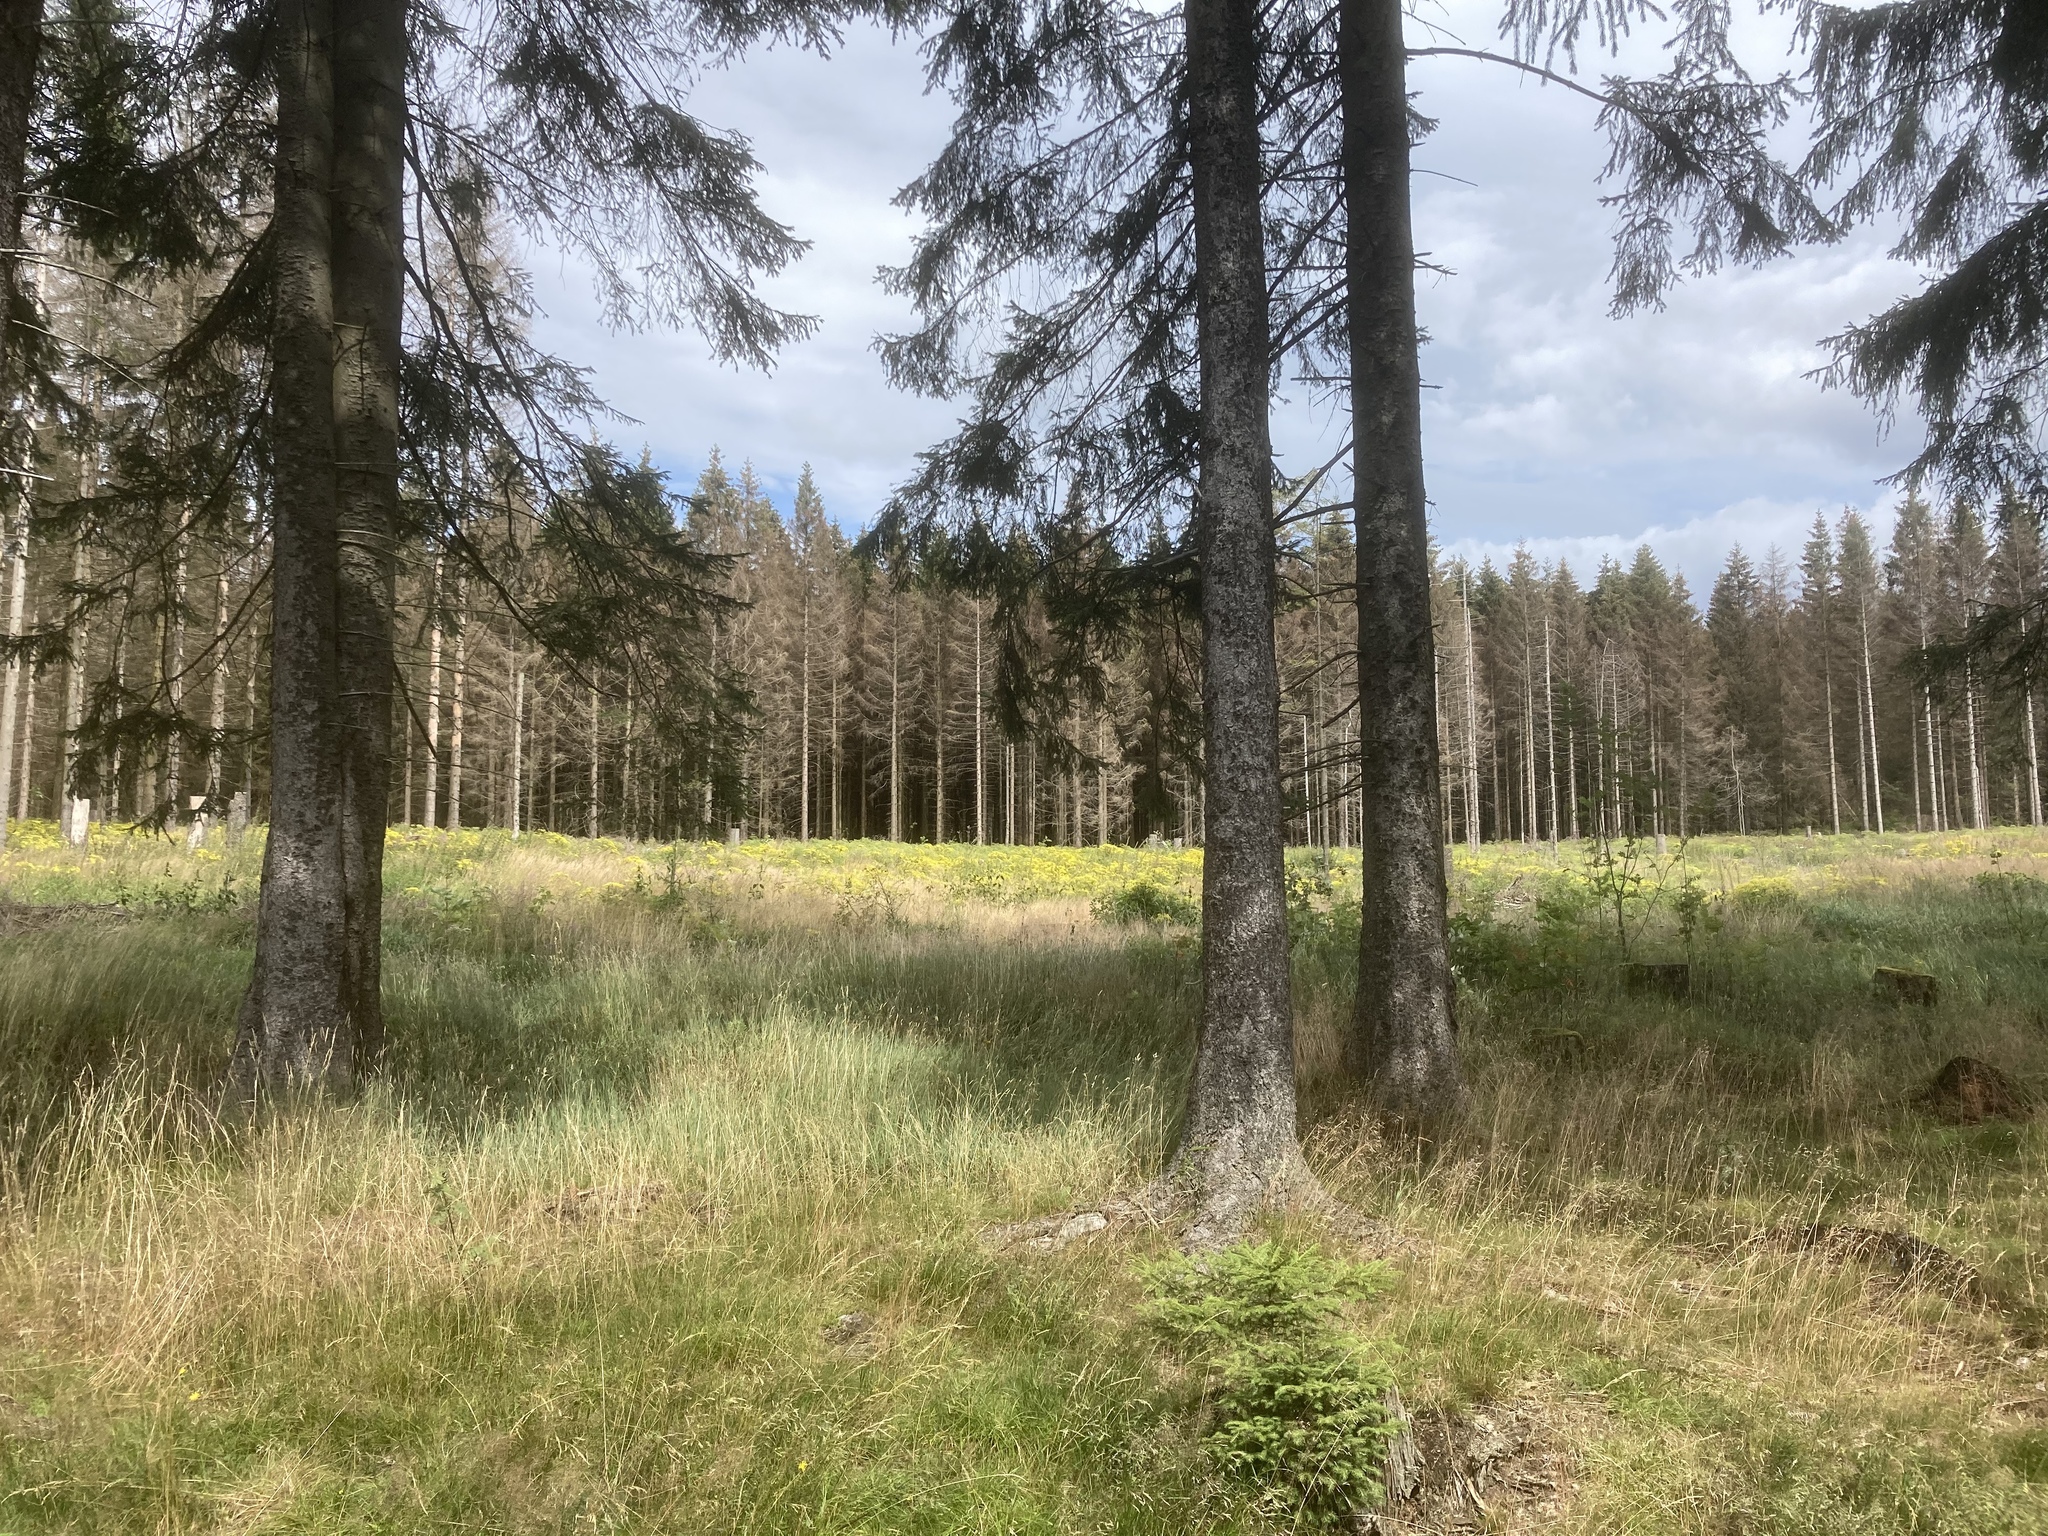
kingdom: Plantae
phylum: Tracheophyta
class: Pinopsida
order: Pinales
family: Pinaceae
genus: Picea
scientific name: Picea abies
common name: Norway spruce
